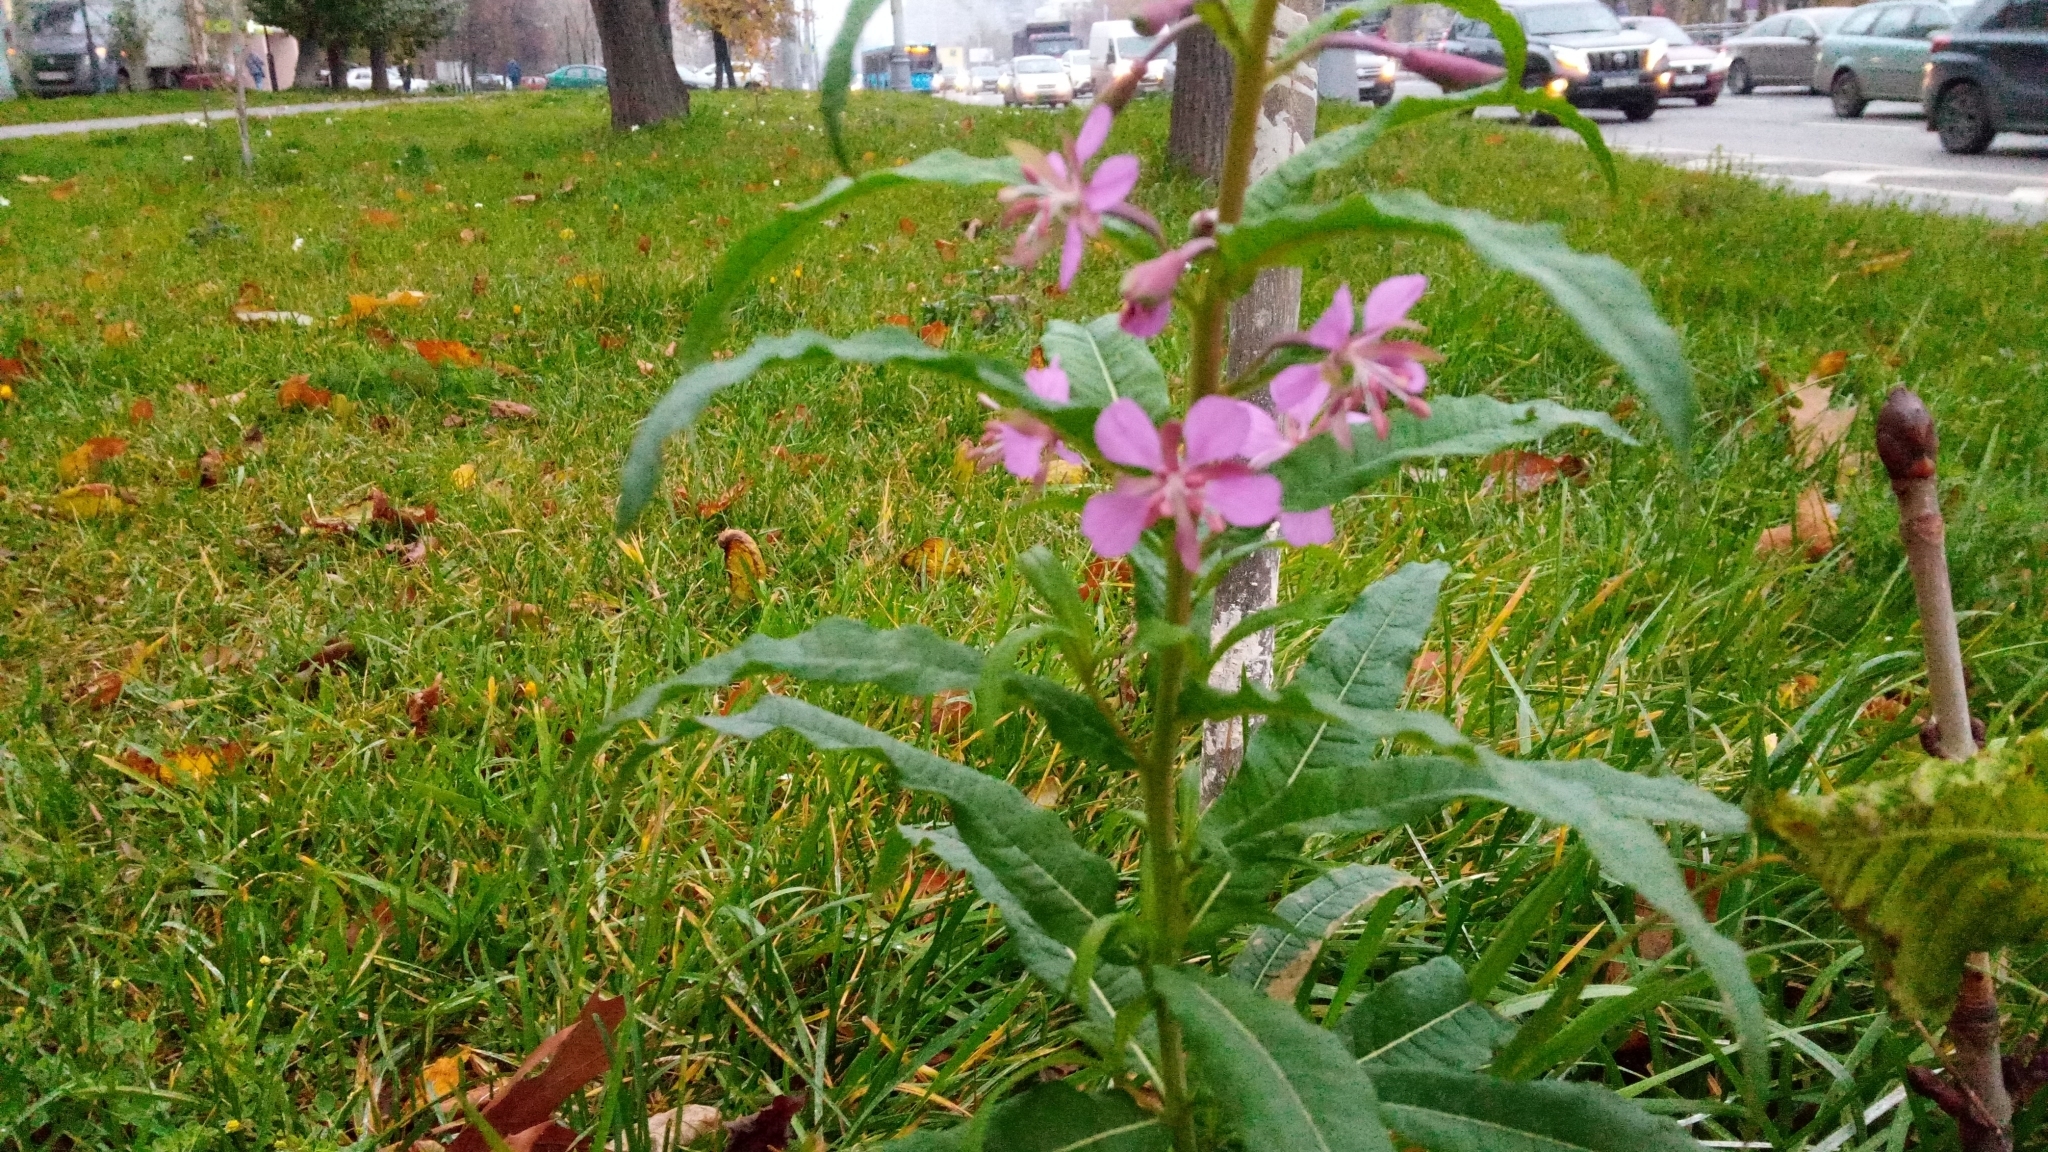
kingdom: Plantae
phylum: Tracheophyta
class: Magnoliopsida
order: Myrtales
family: Onagraceae
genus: Chamaenerion
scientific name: Chamaenerion angustifolium
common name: Fireweed
